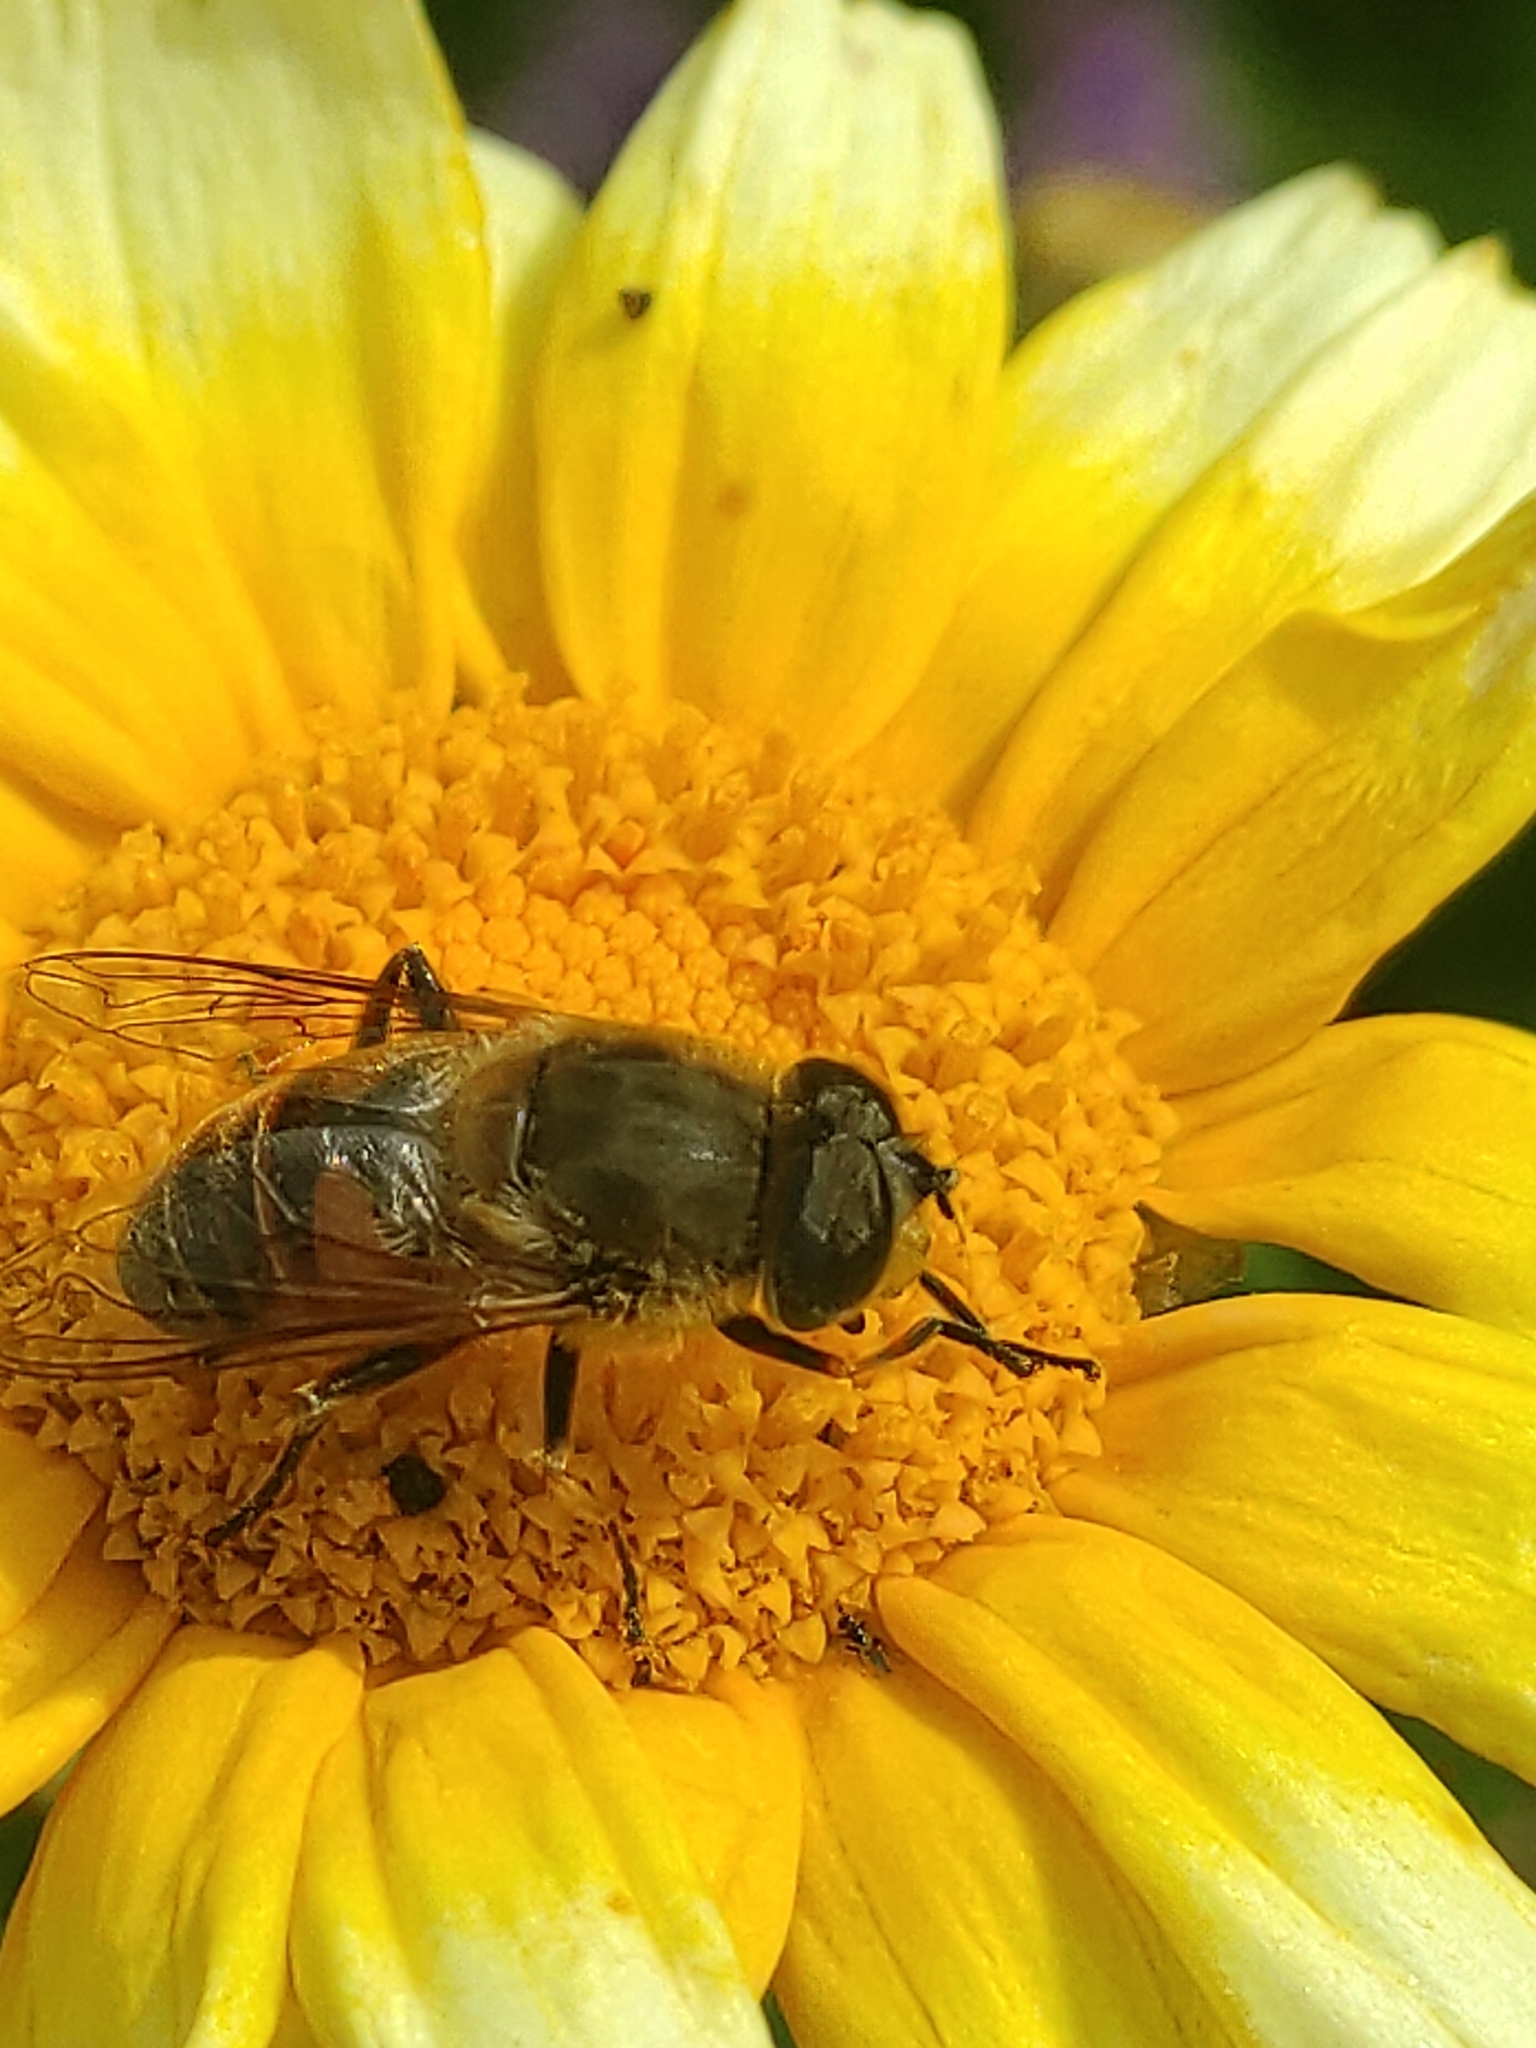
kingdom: Animalia
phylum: Arthropoda
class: Insecta
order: Diptera
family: Syrphidae
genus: Eristalis
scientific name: Eristalis tenax
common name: Drone fly
